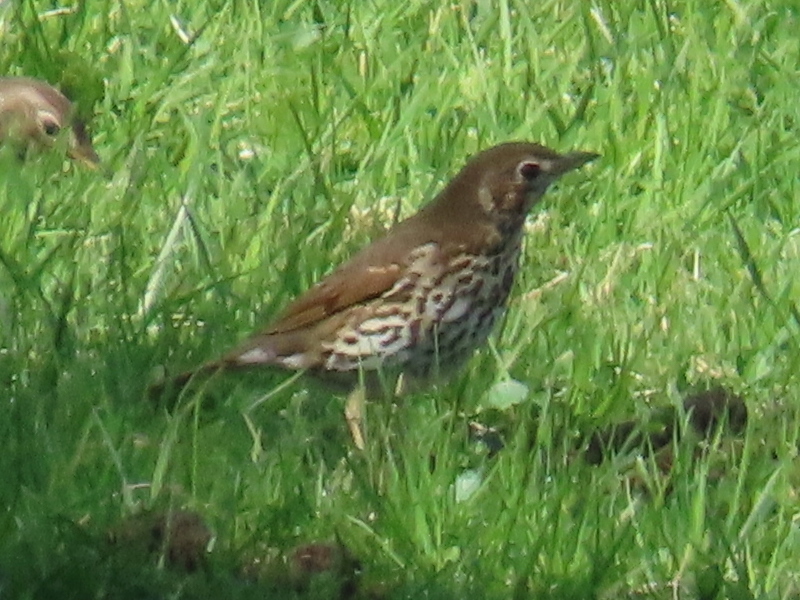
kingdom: Animalia
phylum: Chordata
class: Aves
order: Passeriformes
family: Turdidae
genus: Turdus
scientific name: Turdus philomelos
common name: Song thrush
